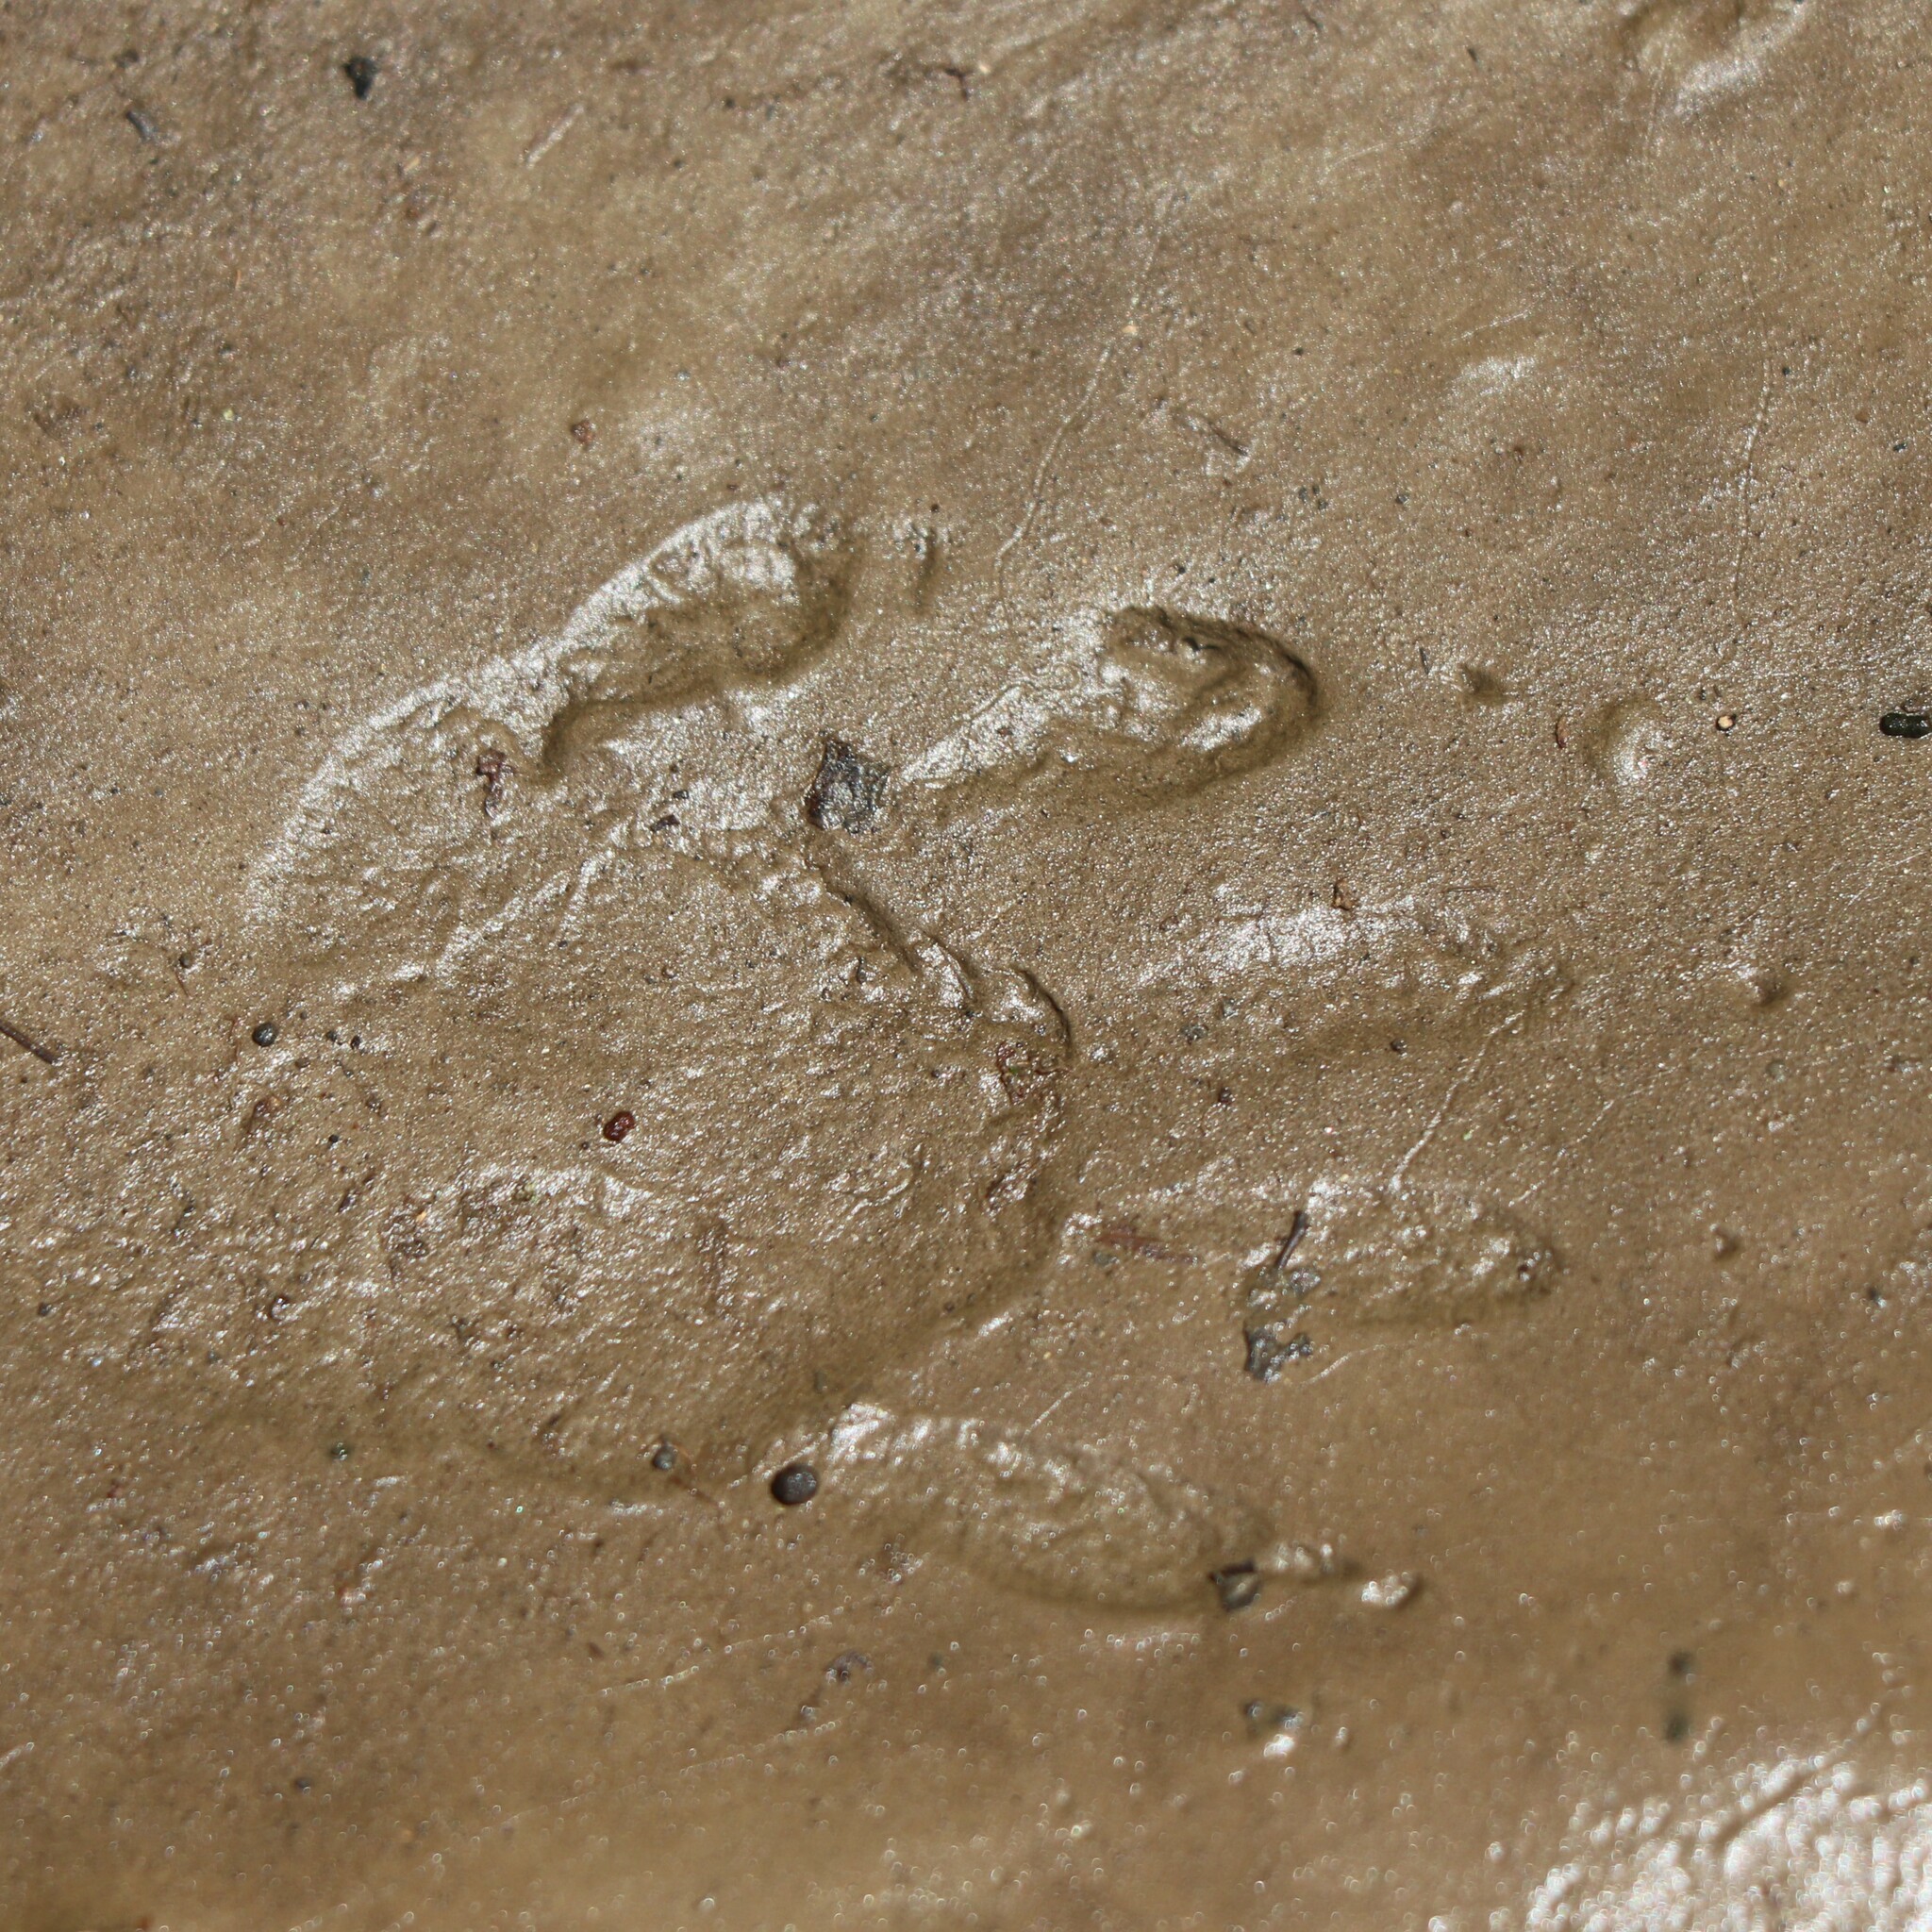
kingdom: Animalia
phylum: Chordata
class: Mammalia
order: Carnivora
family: Procyonidae
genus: Procyon
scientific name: Procyon lotor
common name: Raccoon
